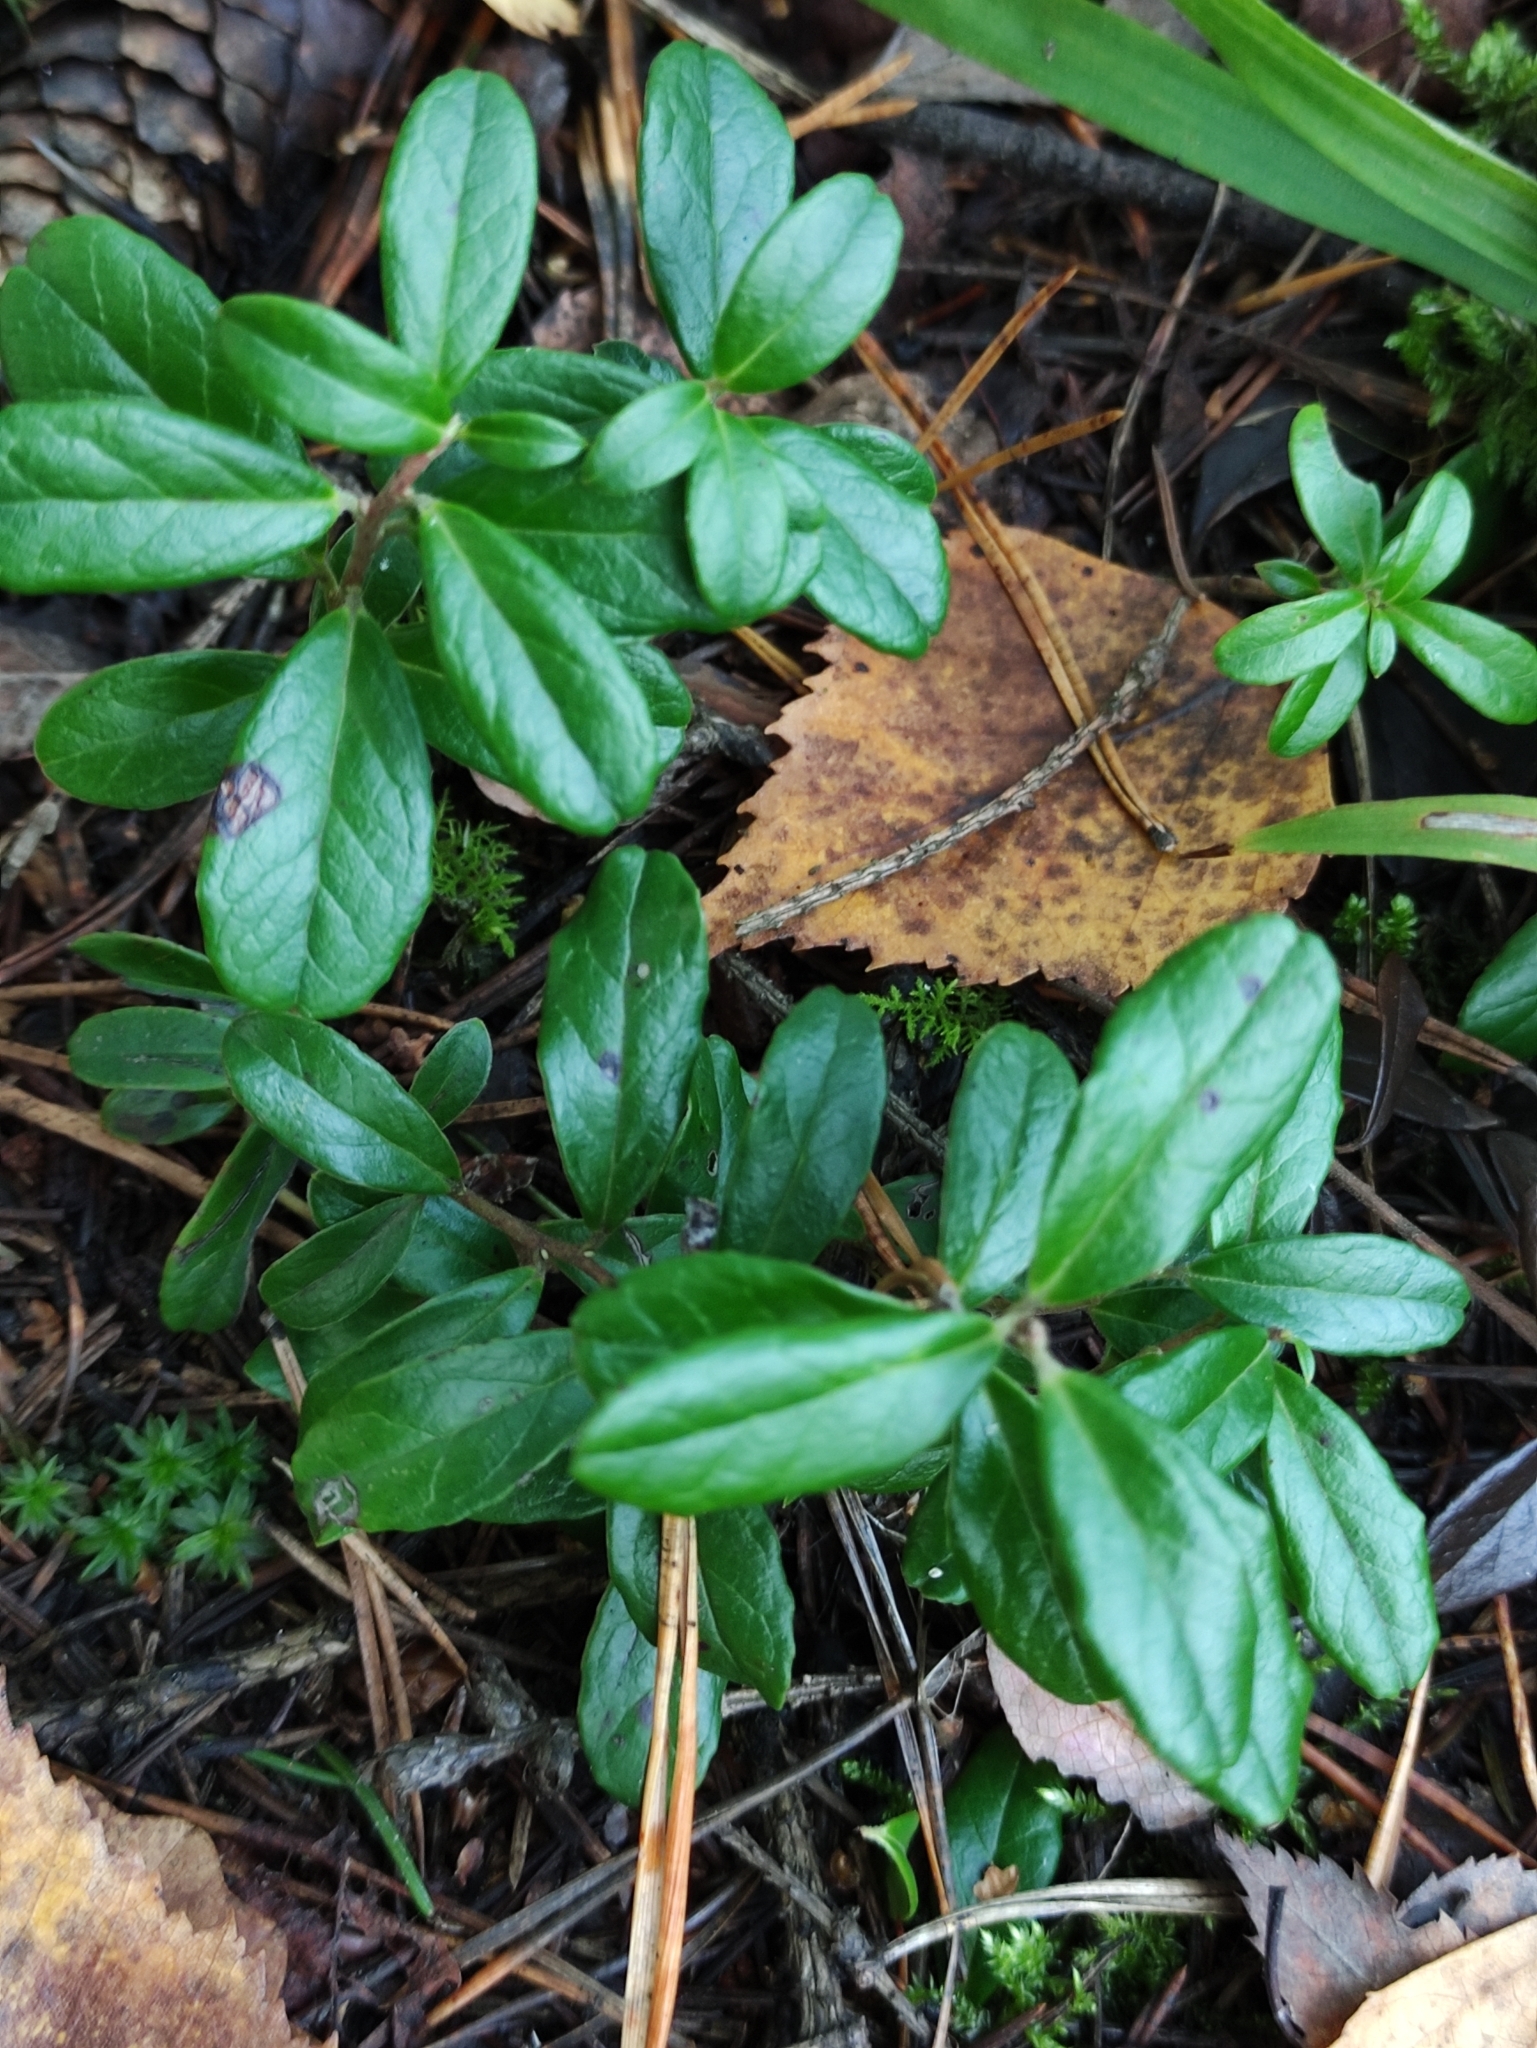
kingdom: Plantae
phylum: Tracheophyta
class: Magnoliopsida
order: Ericales
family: Ericaceae
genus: Vaccinium
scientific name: Vaccinium vitis-idaea
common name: Cowberry
